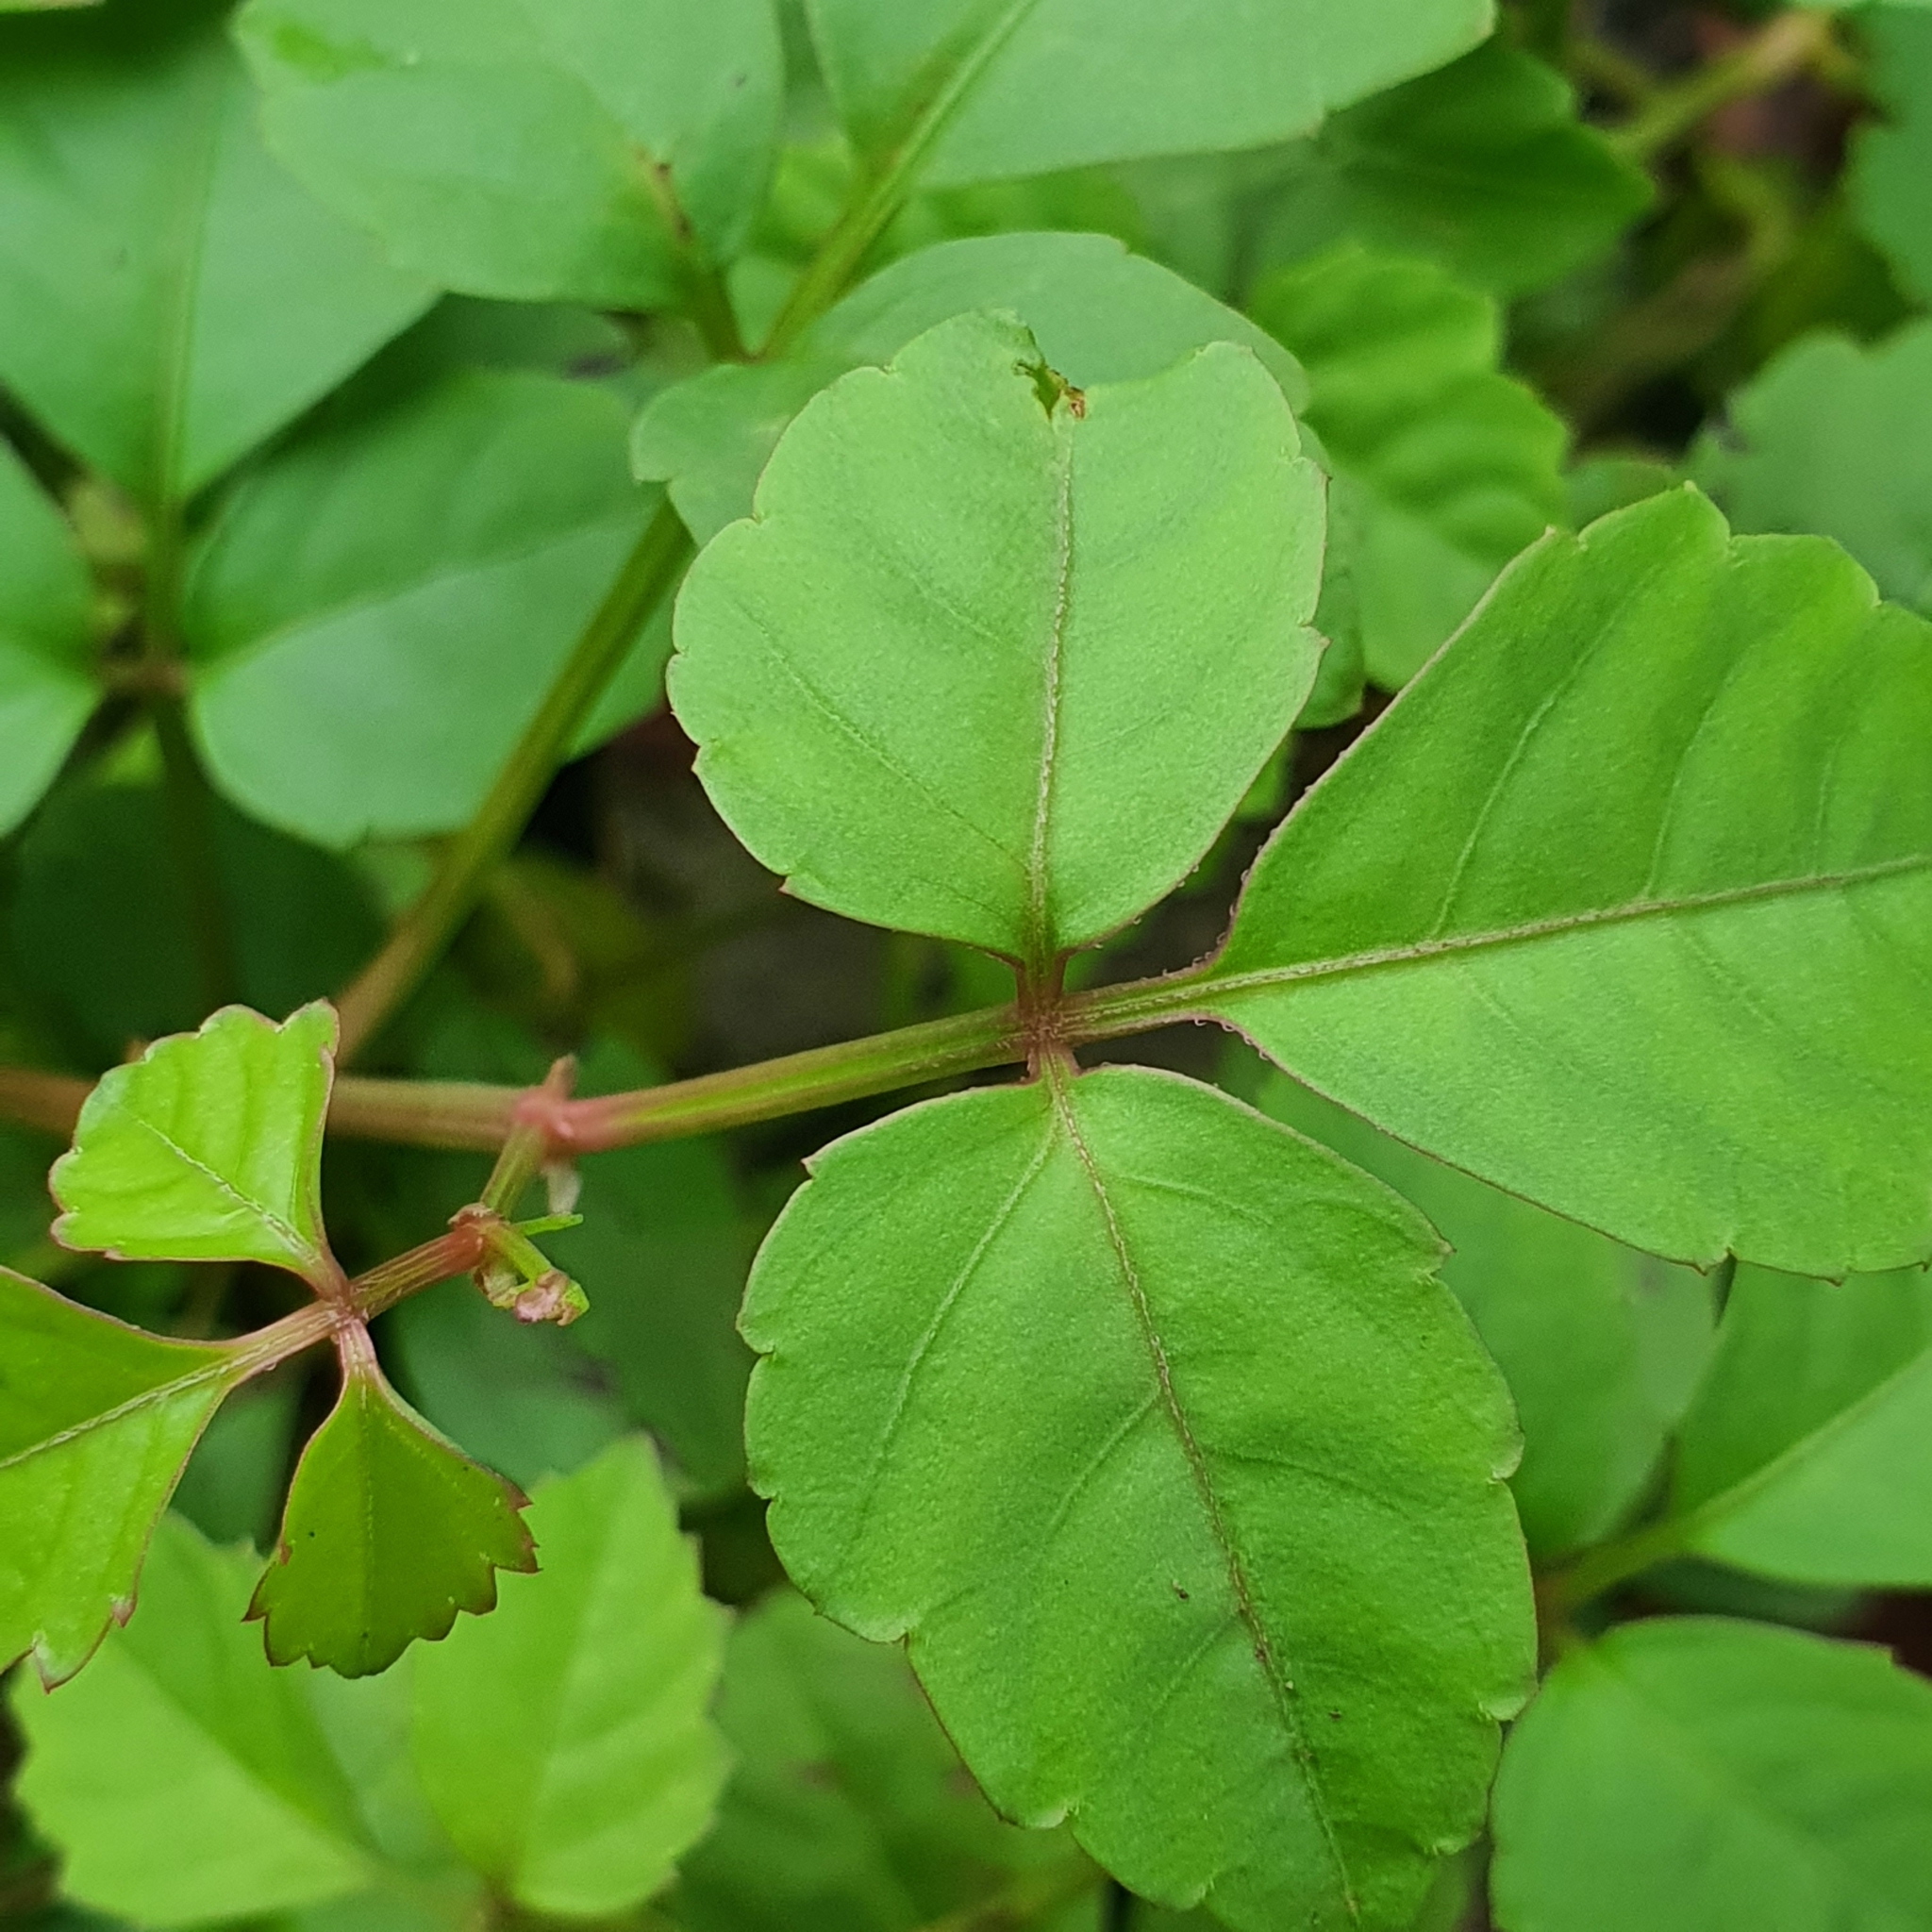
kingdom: Plantae
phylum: Tracheophyta
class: Magnoliopsida
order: Vitales
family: Vitaceae
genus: Causonis
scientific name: Causonis trifolia
